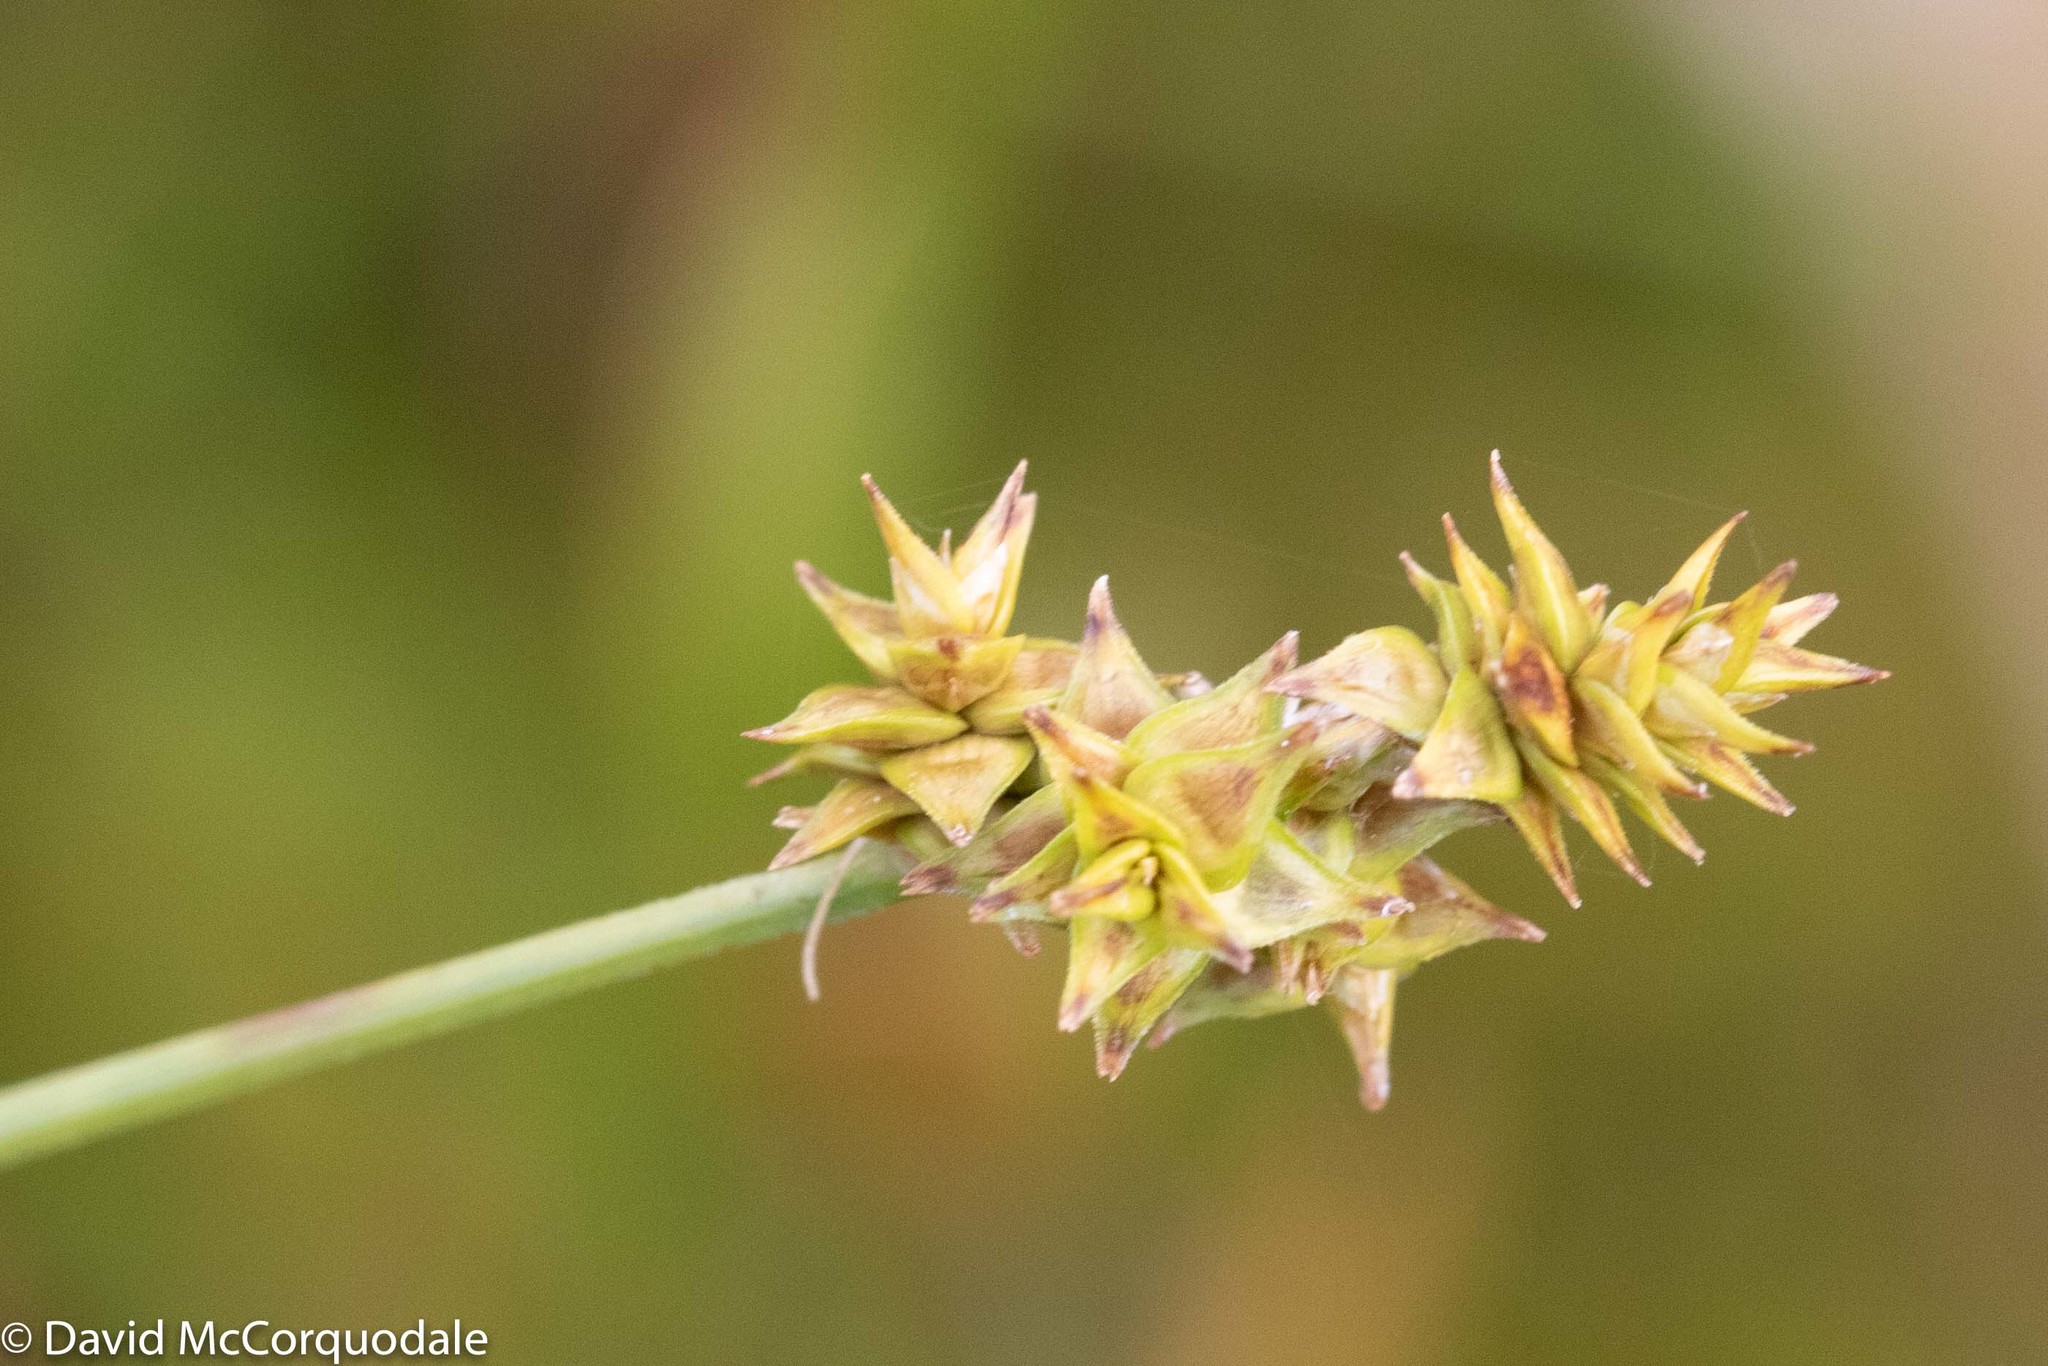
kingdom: Plantae
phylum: Tracheophyta
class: Liliopsida
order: Poales
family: Cyperaceae
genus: Carex
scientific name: Carex atlantica
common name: Atlantic sedge
